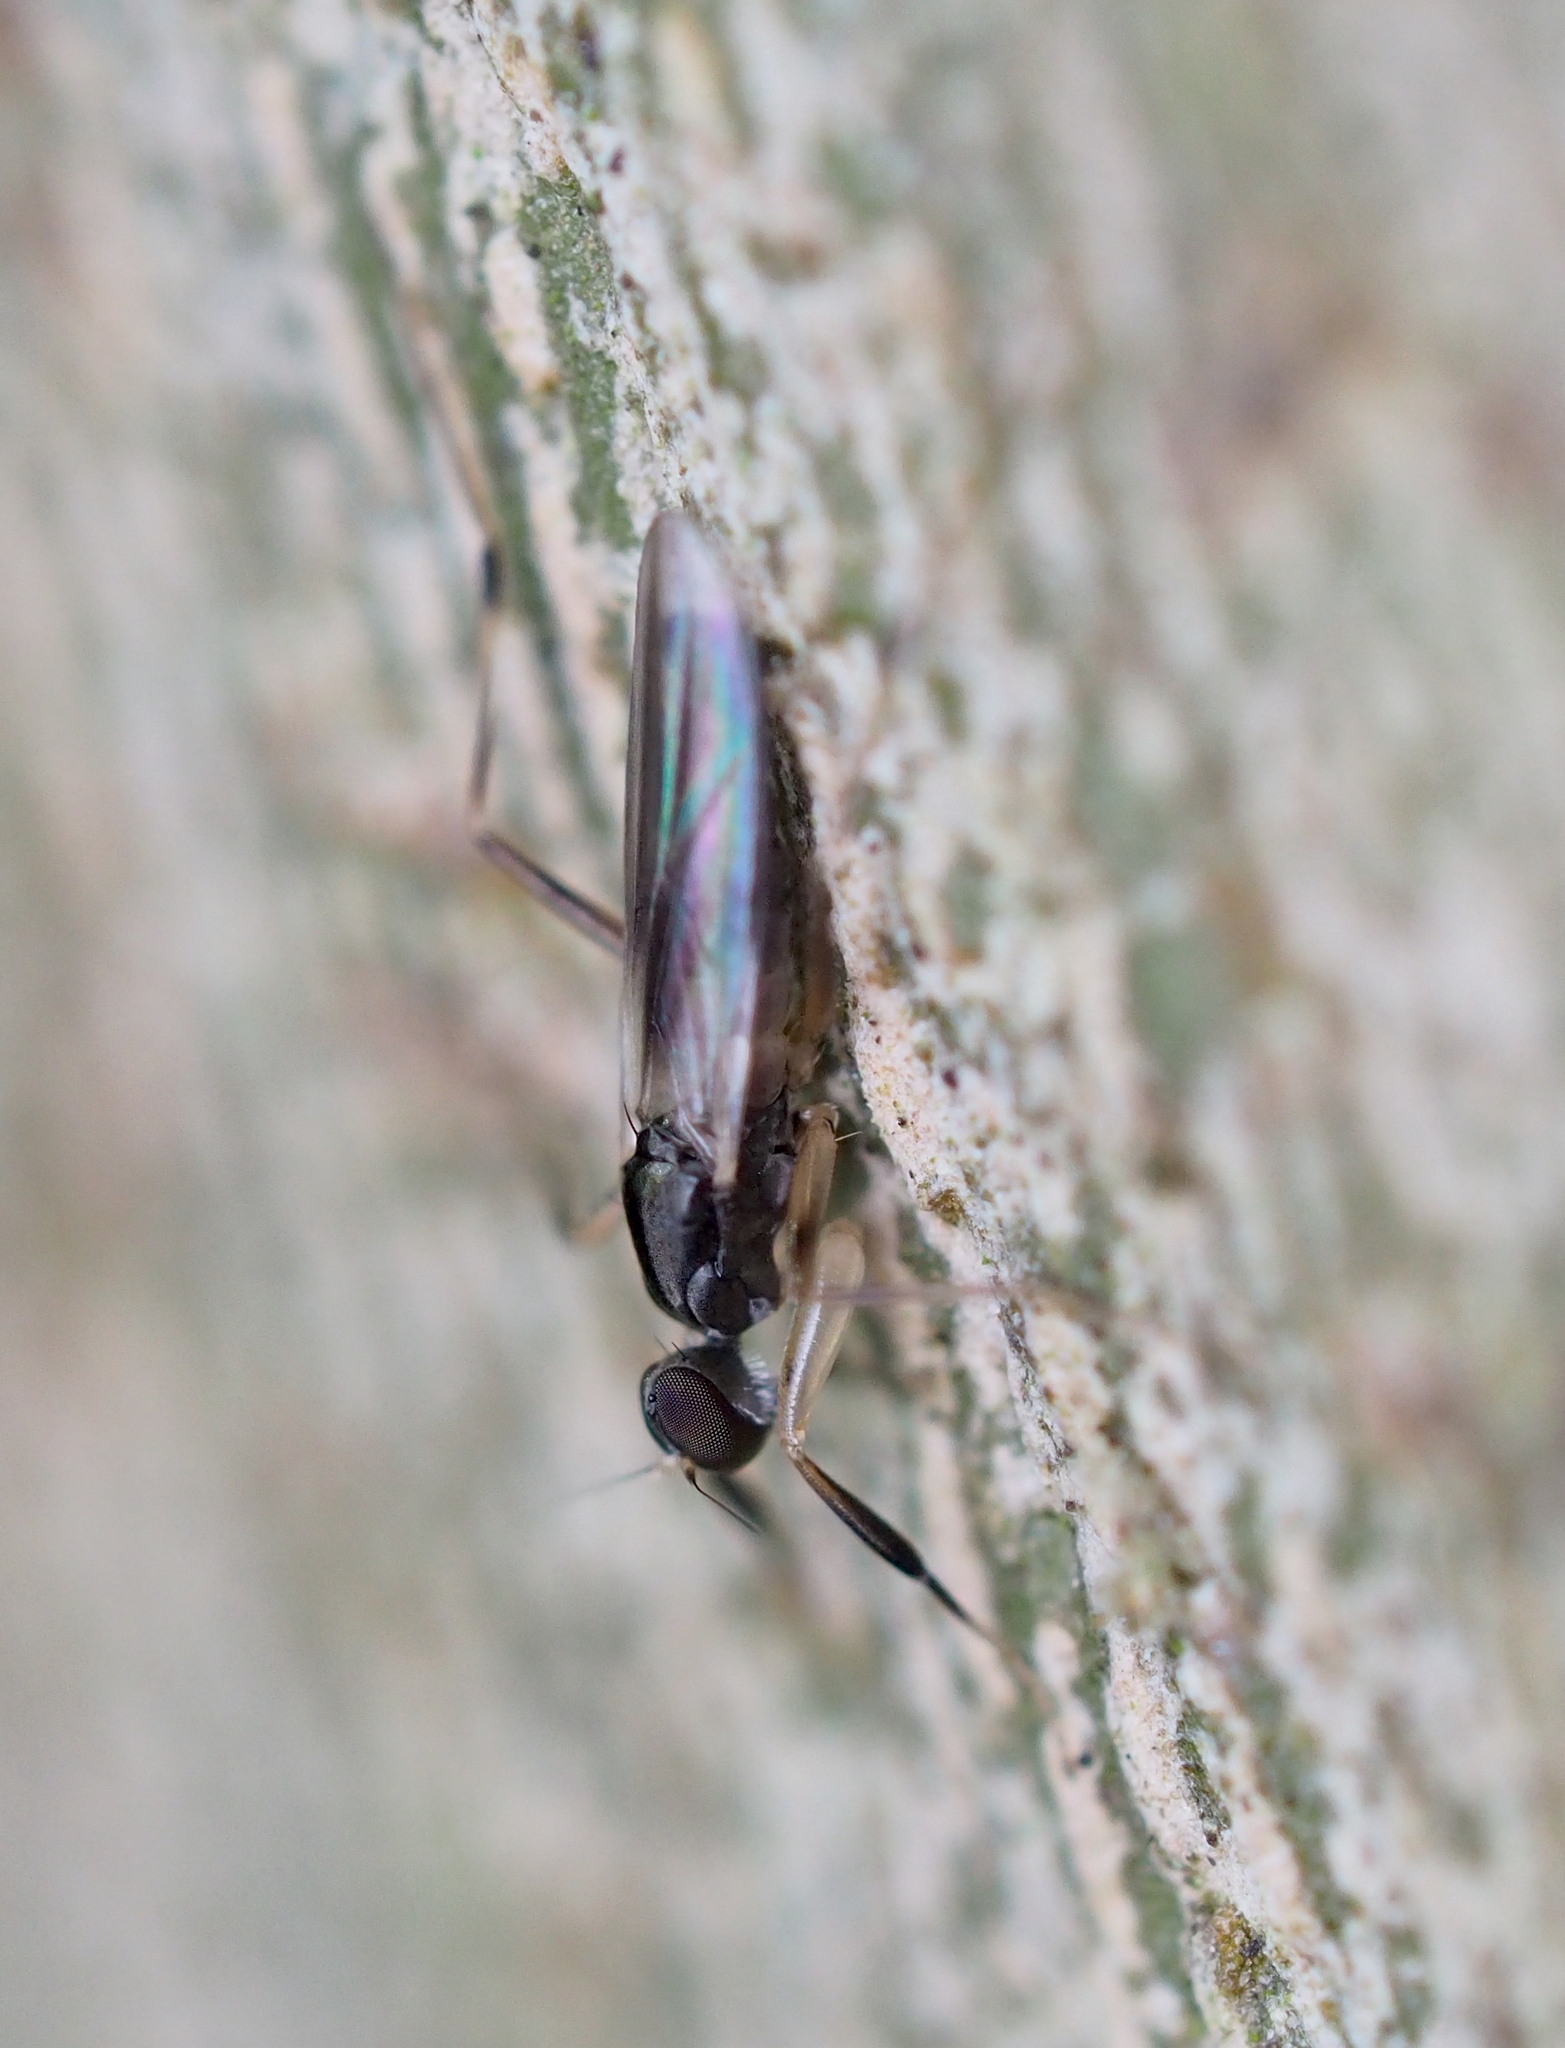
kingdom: Animalia
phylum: Arthropoda
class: Insecta
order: Diptera
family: Hybotidae
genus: Tachypeza
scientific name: Tachypeza nubila
